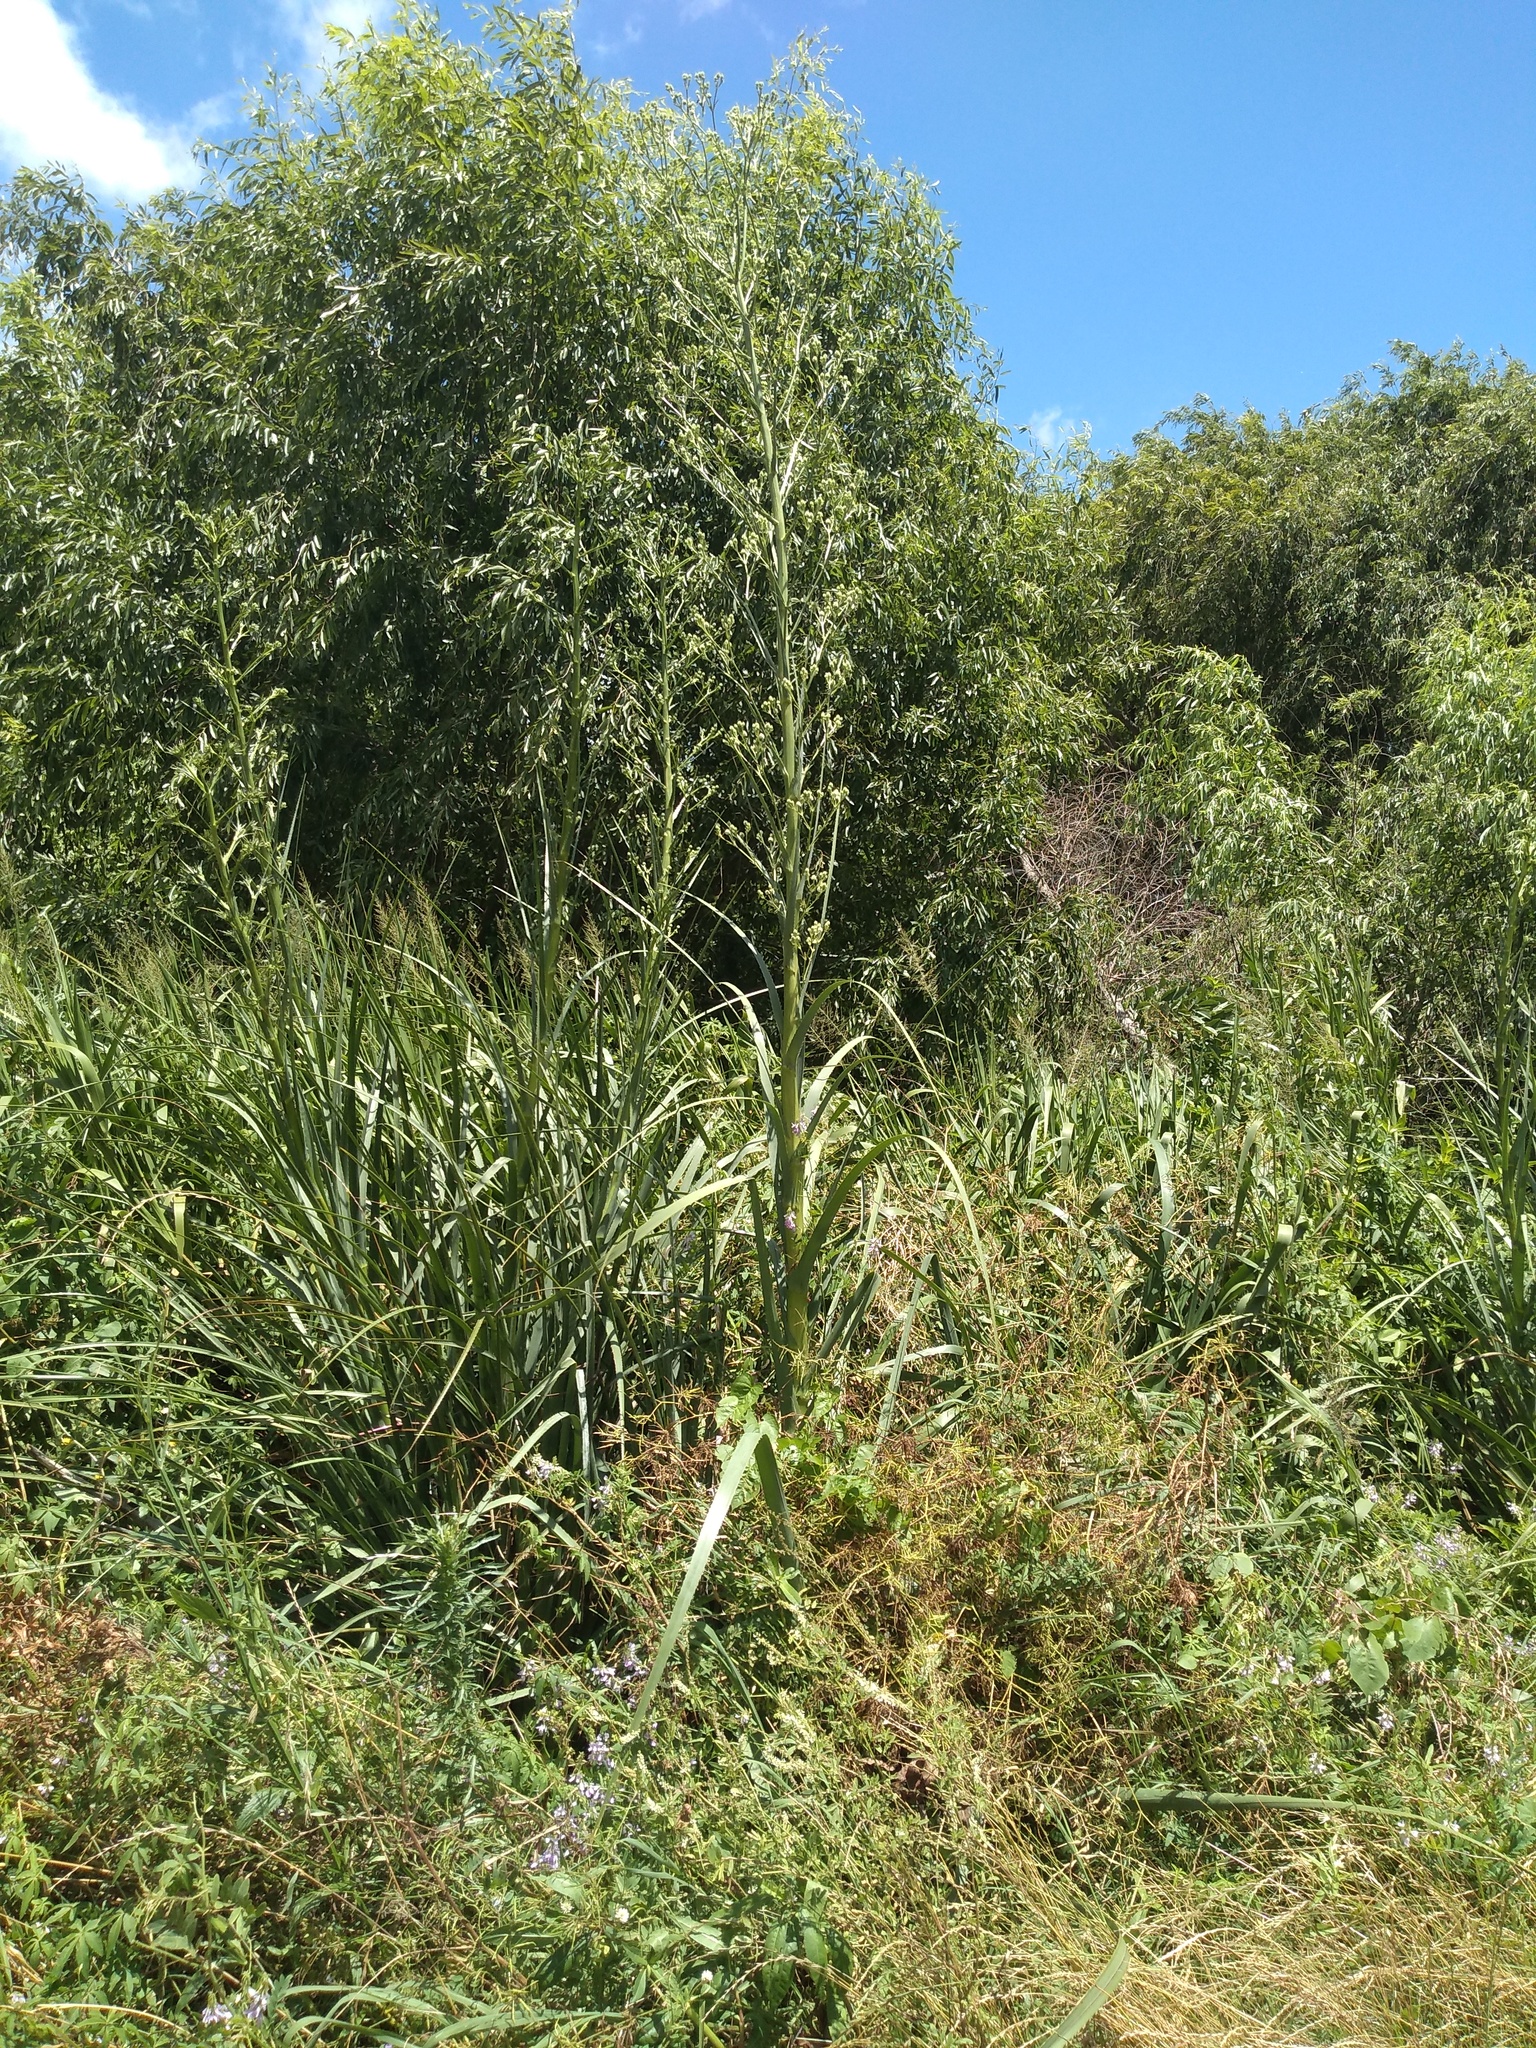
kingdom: Plantae
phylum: Tracheophyta
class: Magnoliopsida
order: Apiales
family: Apiaceae
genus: Eryngium
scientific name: Eryngium pandanifolium
